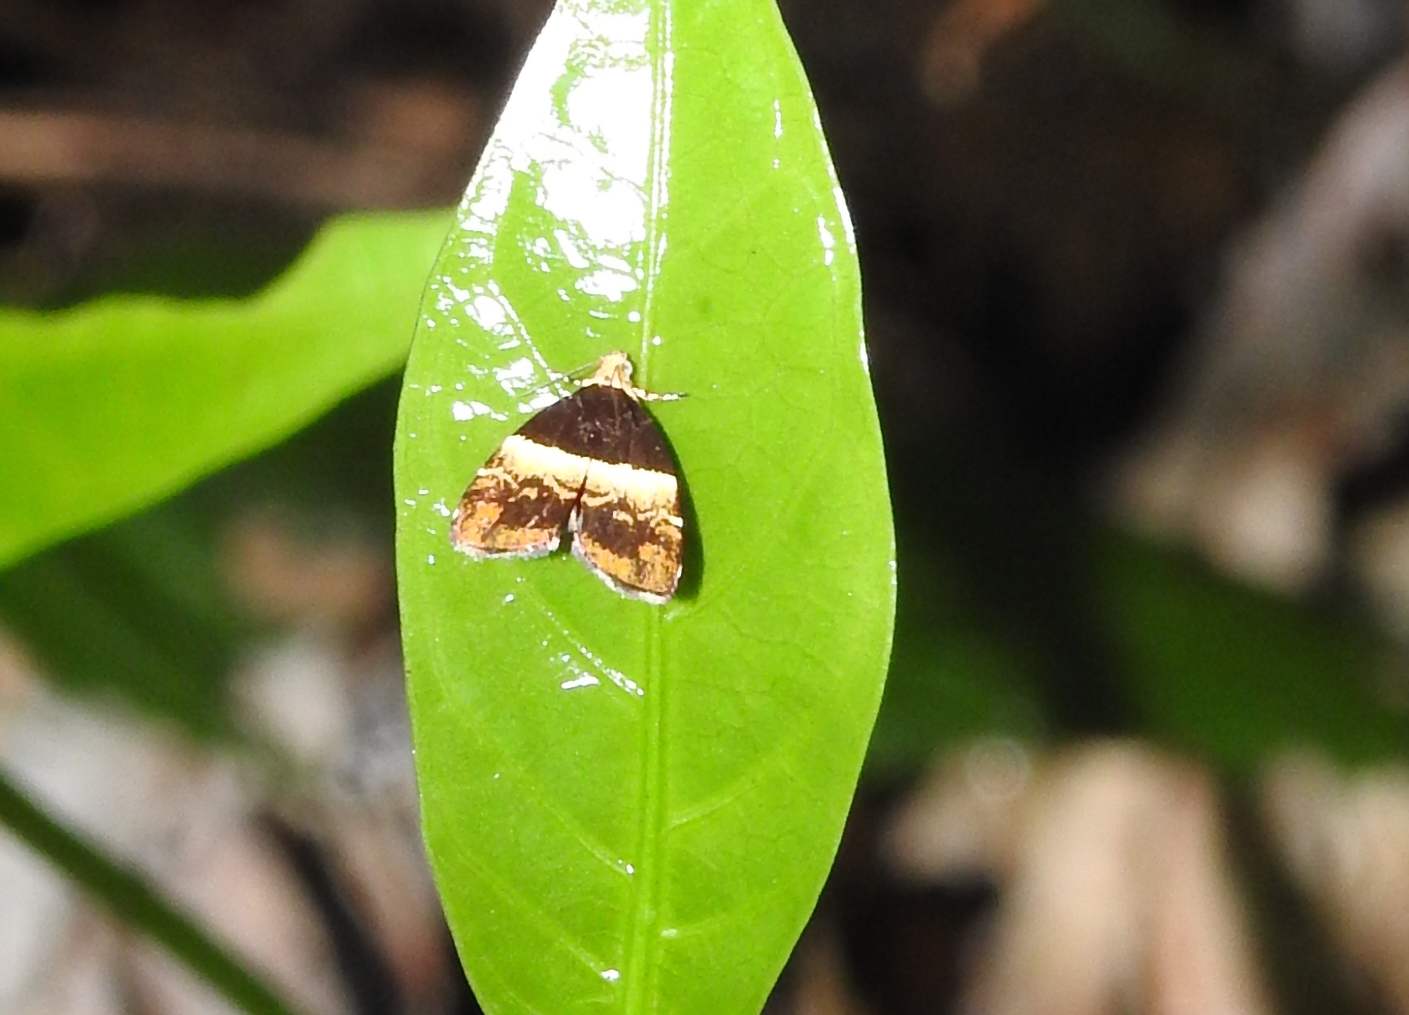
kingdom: Animalia
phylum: Arthropoda
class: Insecta
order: Lepidoptera
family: Choreutidae
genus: Choreutis
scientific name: Choreutis argyroxantha
